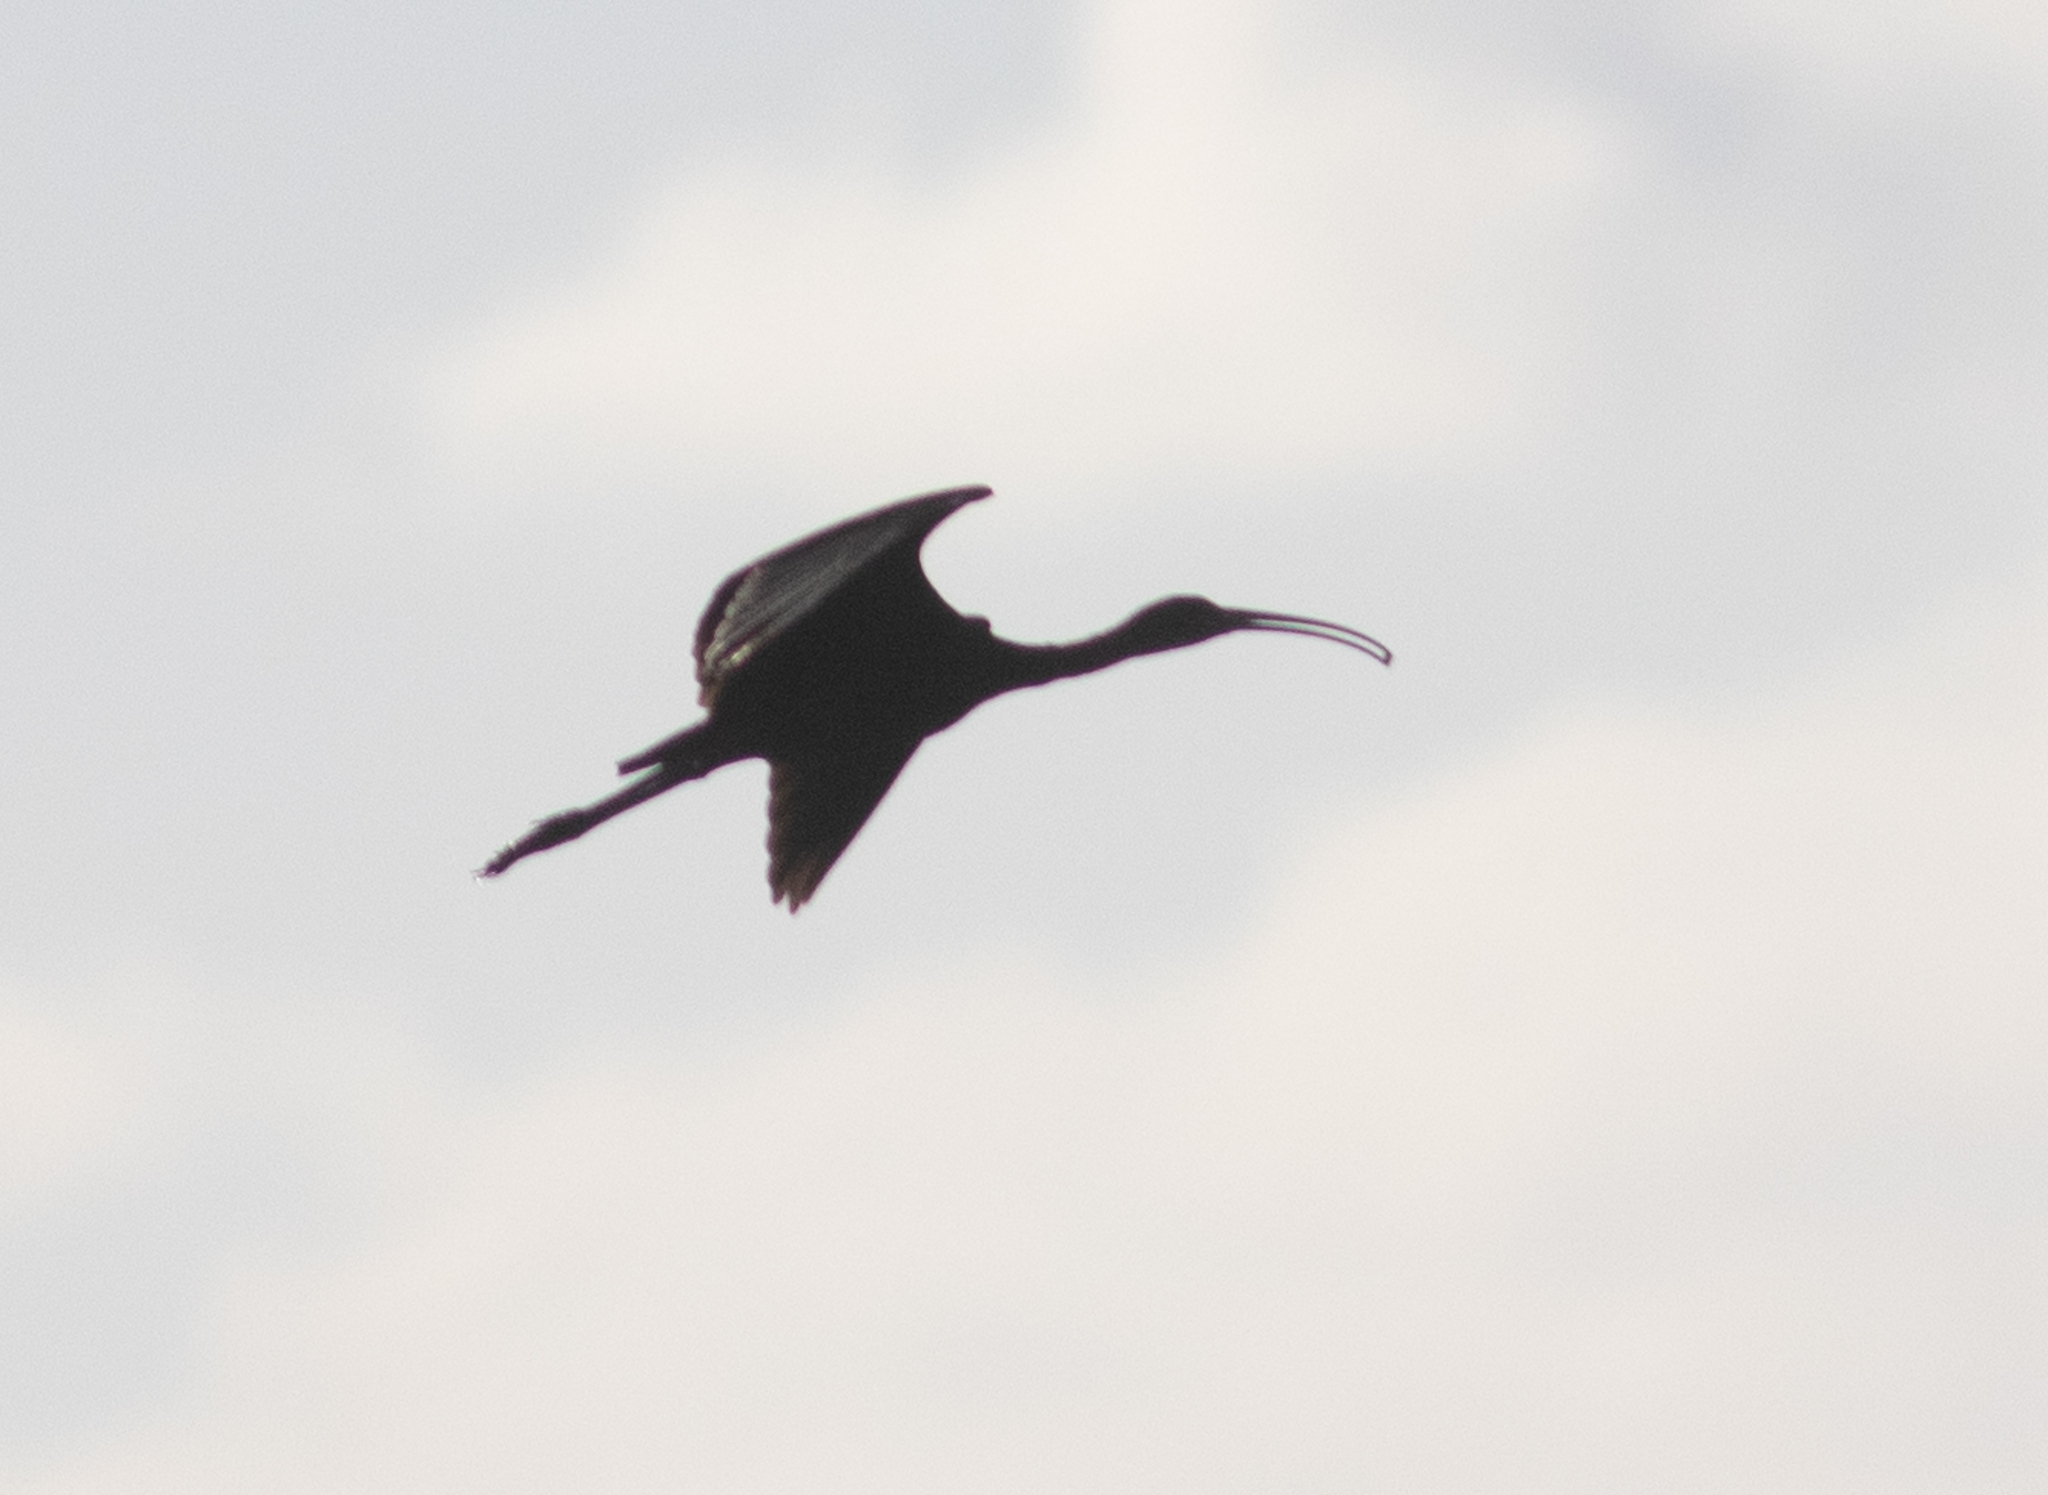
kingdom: Animalia
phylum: Chordata
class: Aves
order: Pelecaniformes
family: Threskiornithidae
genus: Plegadis
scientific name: Plegadis falcinellus
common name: Glossy ibis
